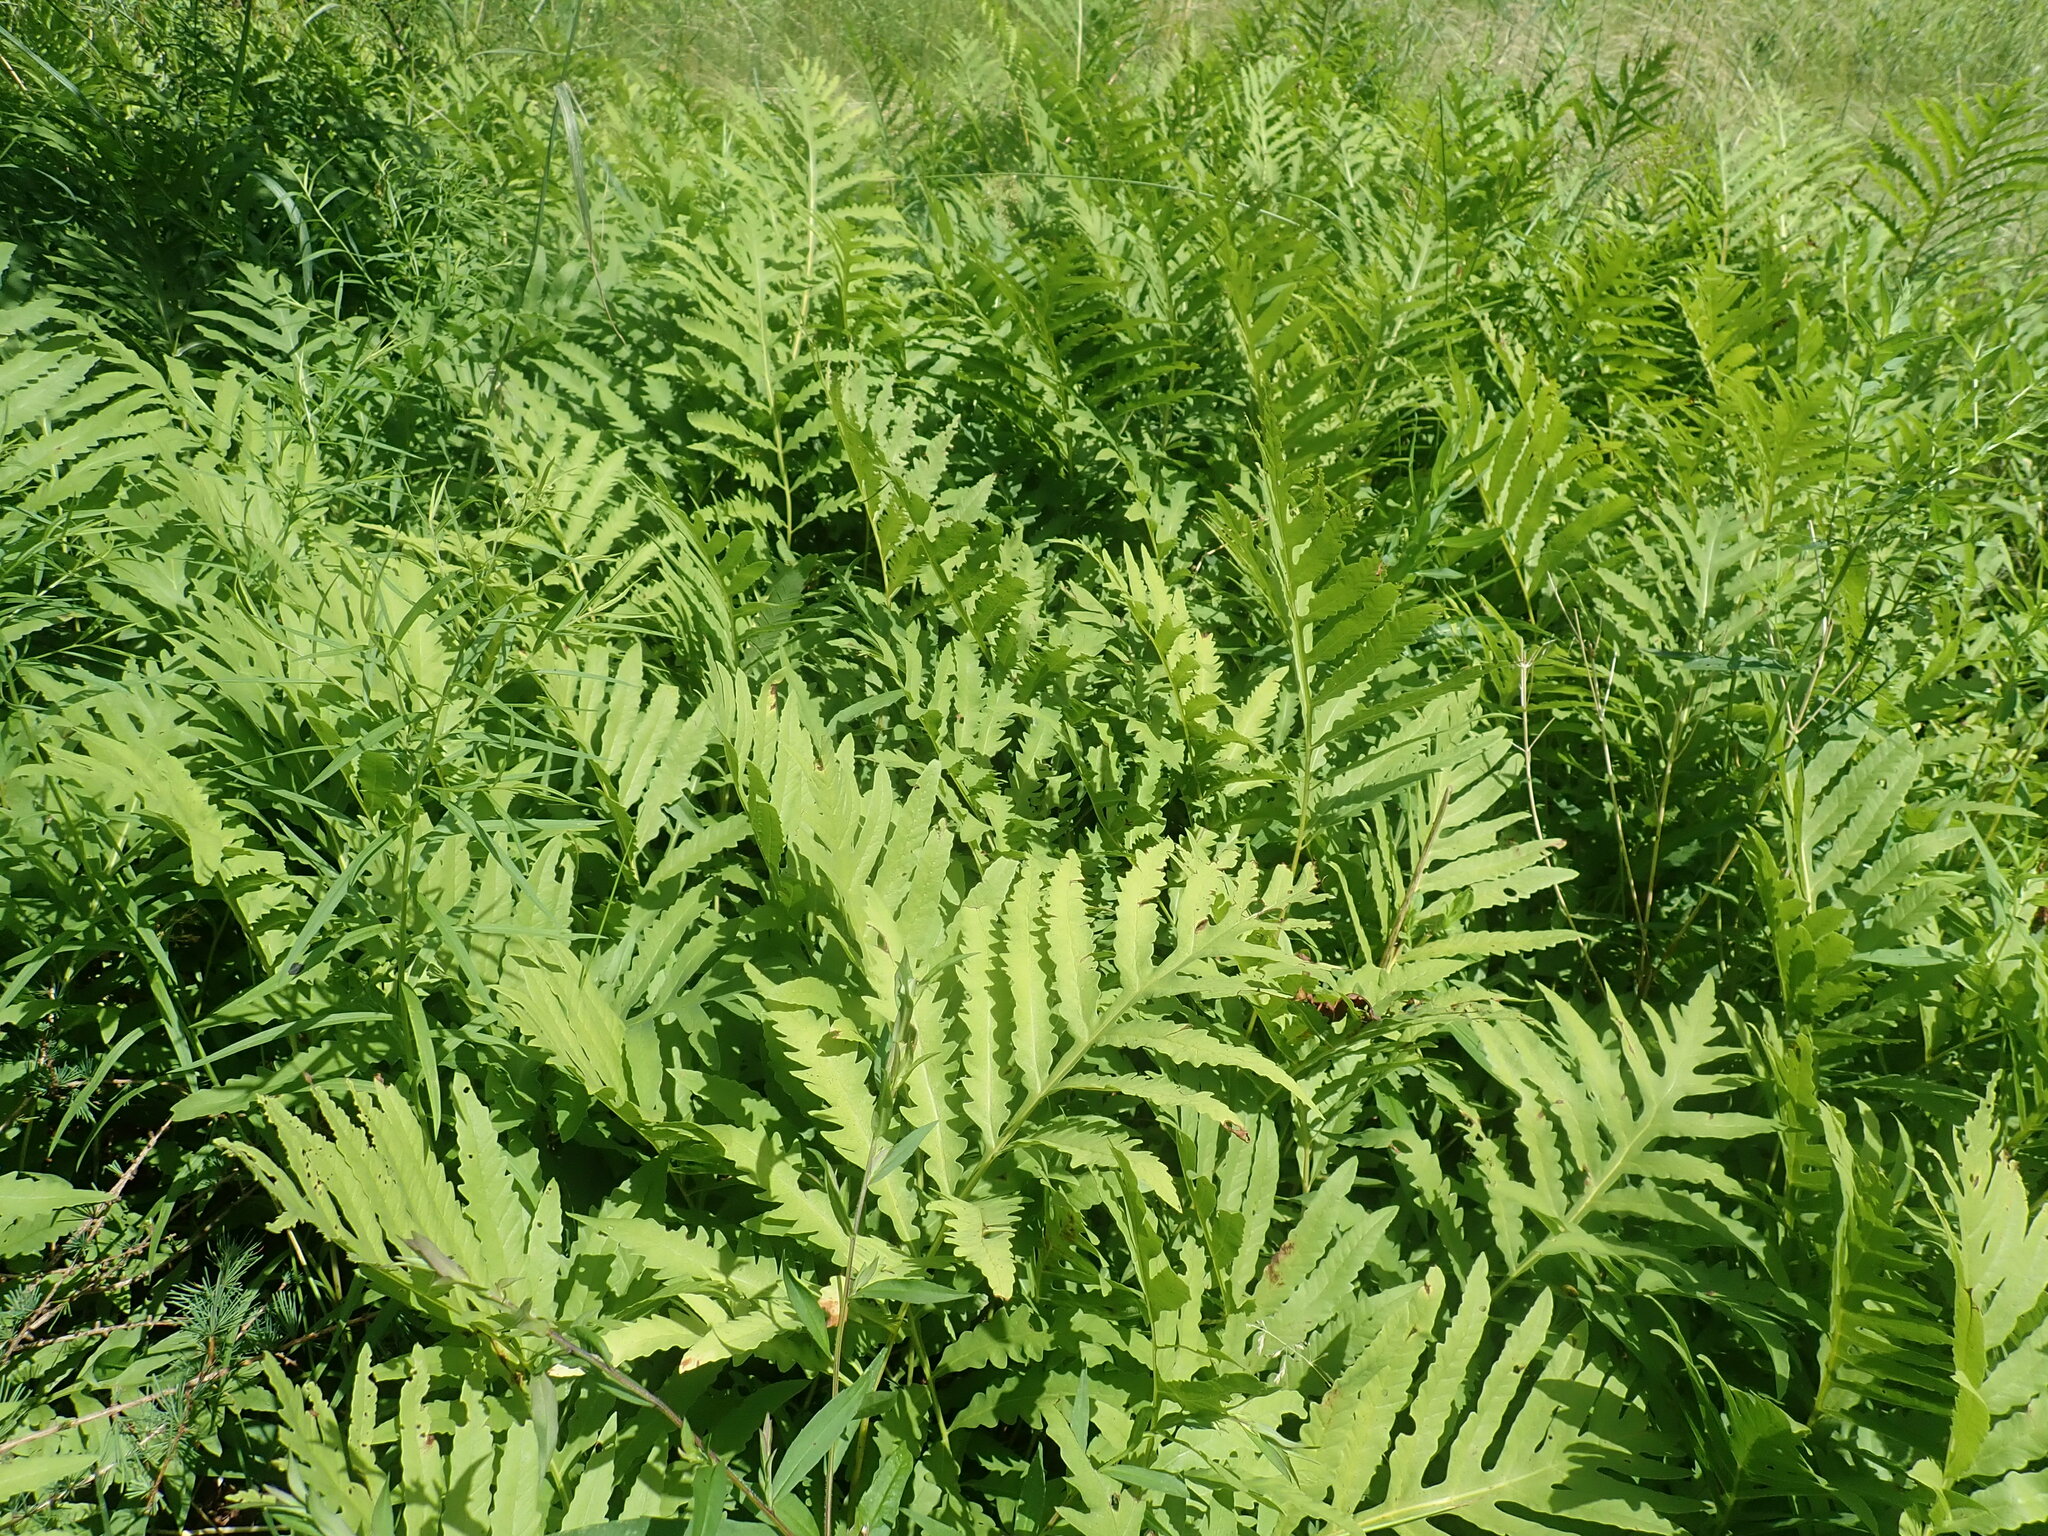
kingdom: Plantae
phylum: Tracheophyta
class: Polypodiopsida
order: Polypodiales
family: Onocleaceae
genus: Onoclea
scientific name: Onoclea sensibilis
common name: Sensitive fern
